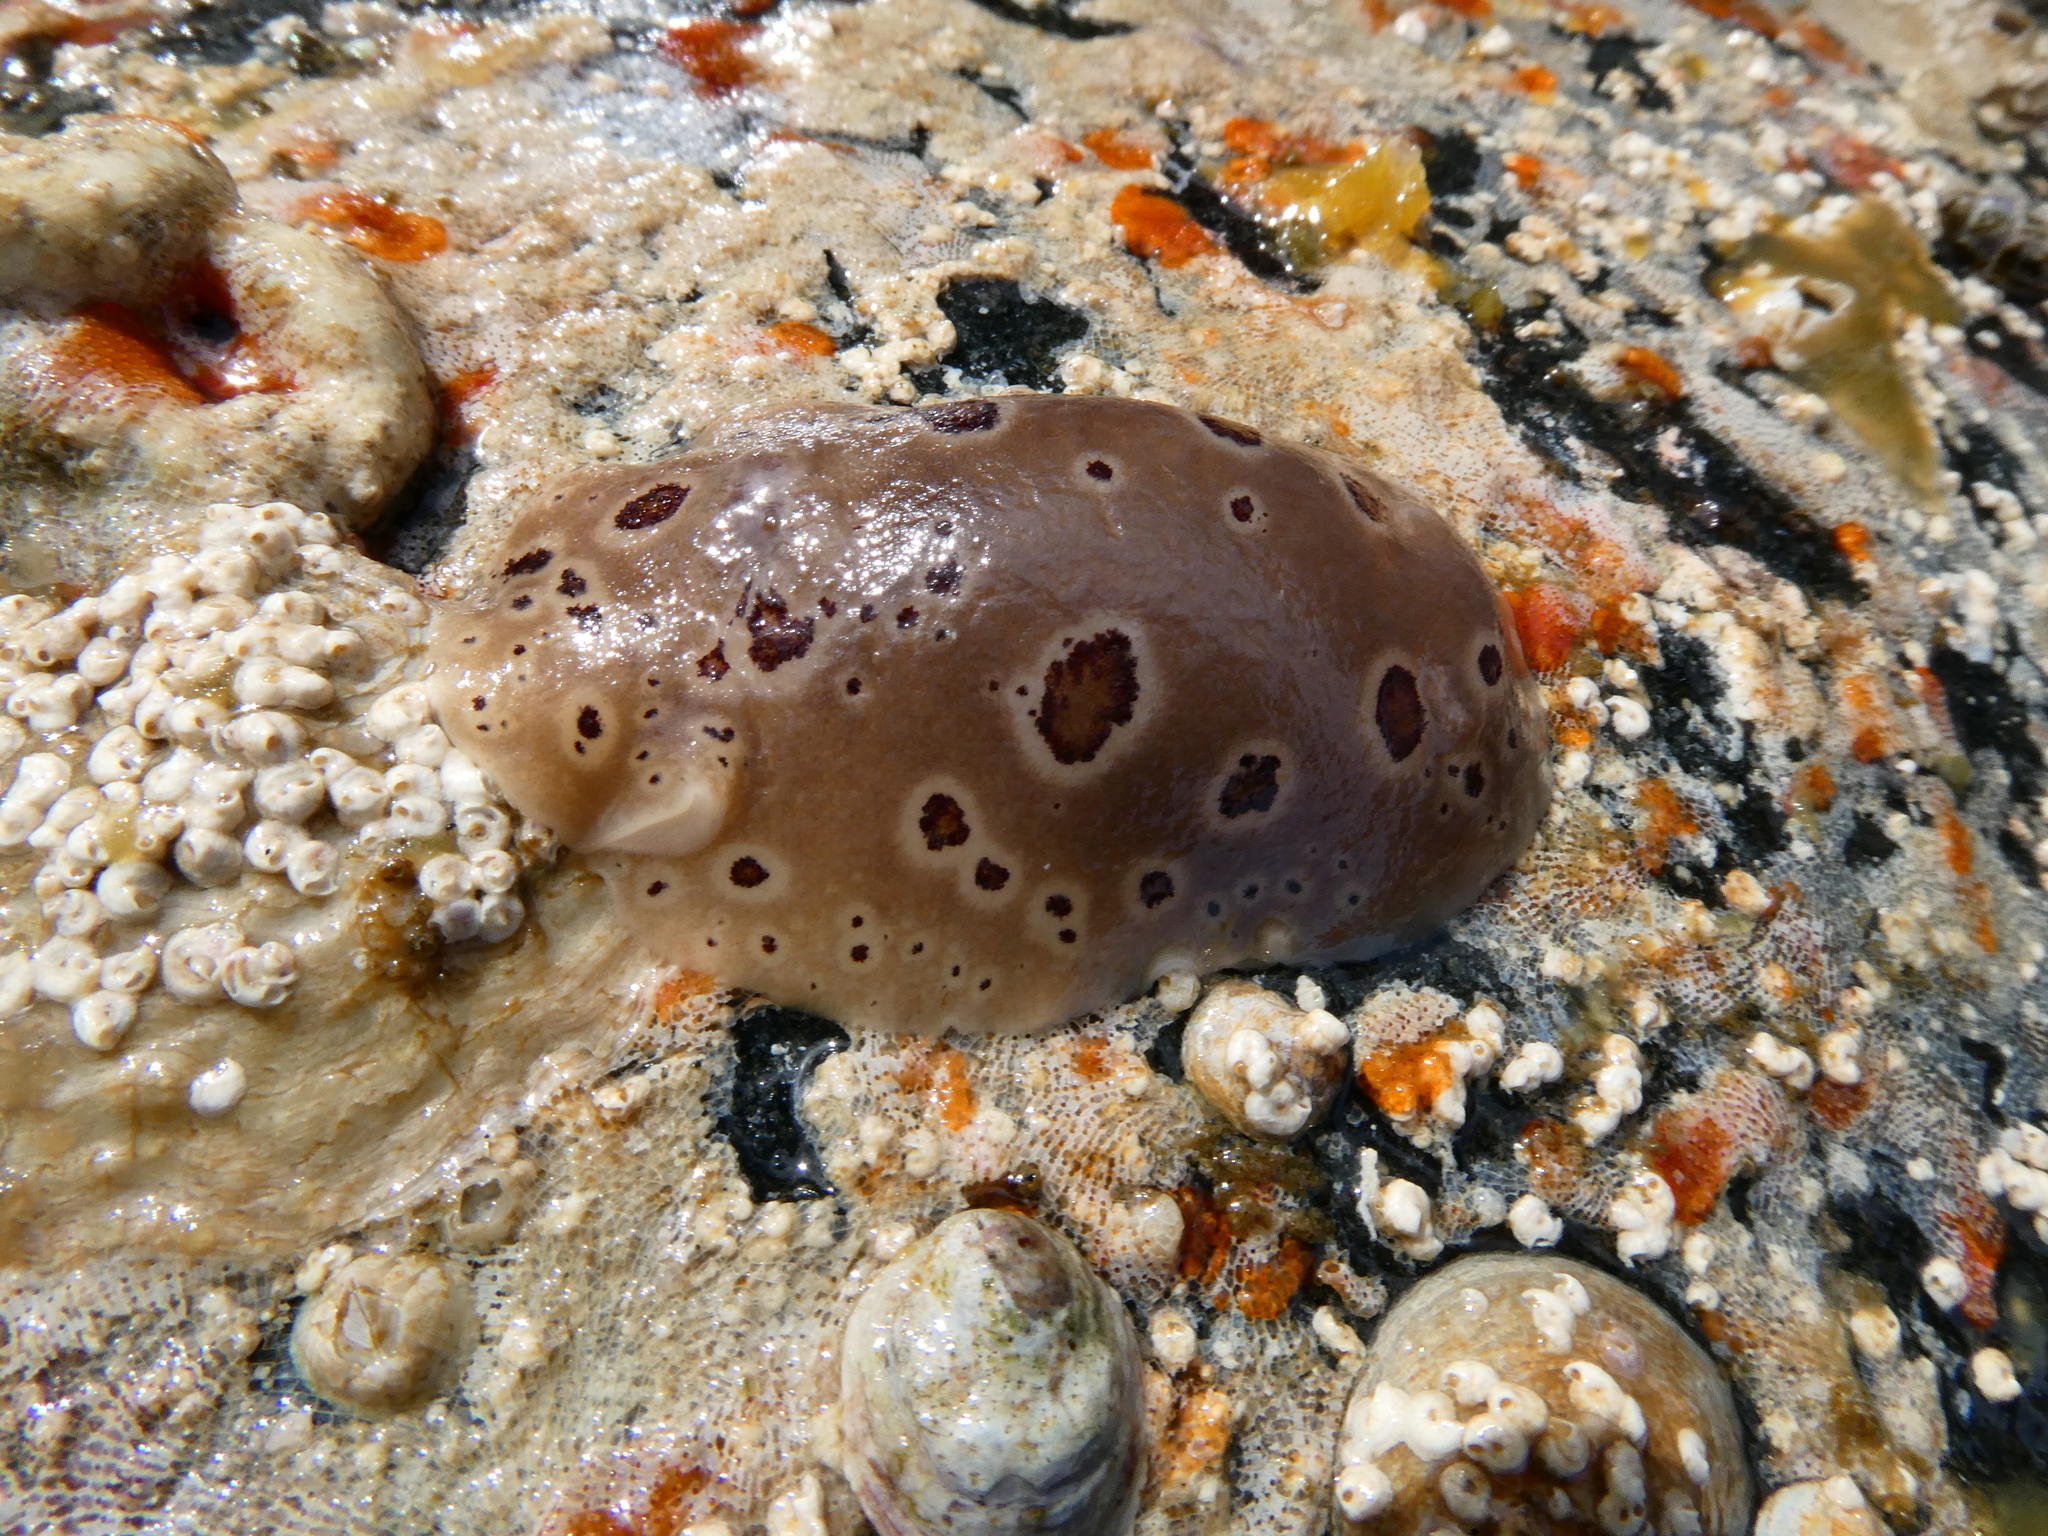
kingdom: Animalia
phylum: Mollusca
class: Gastropoda
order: Nudibranchia
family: Discodorididae
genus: Diaulula
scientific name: Diaulula odonoghuei
